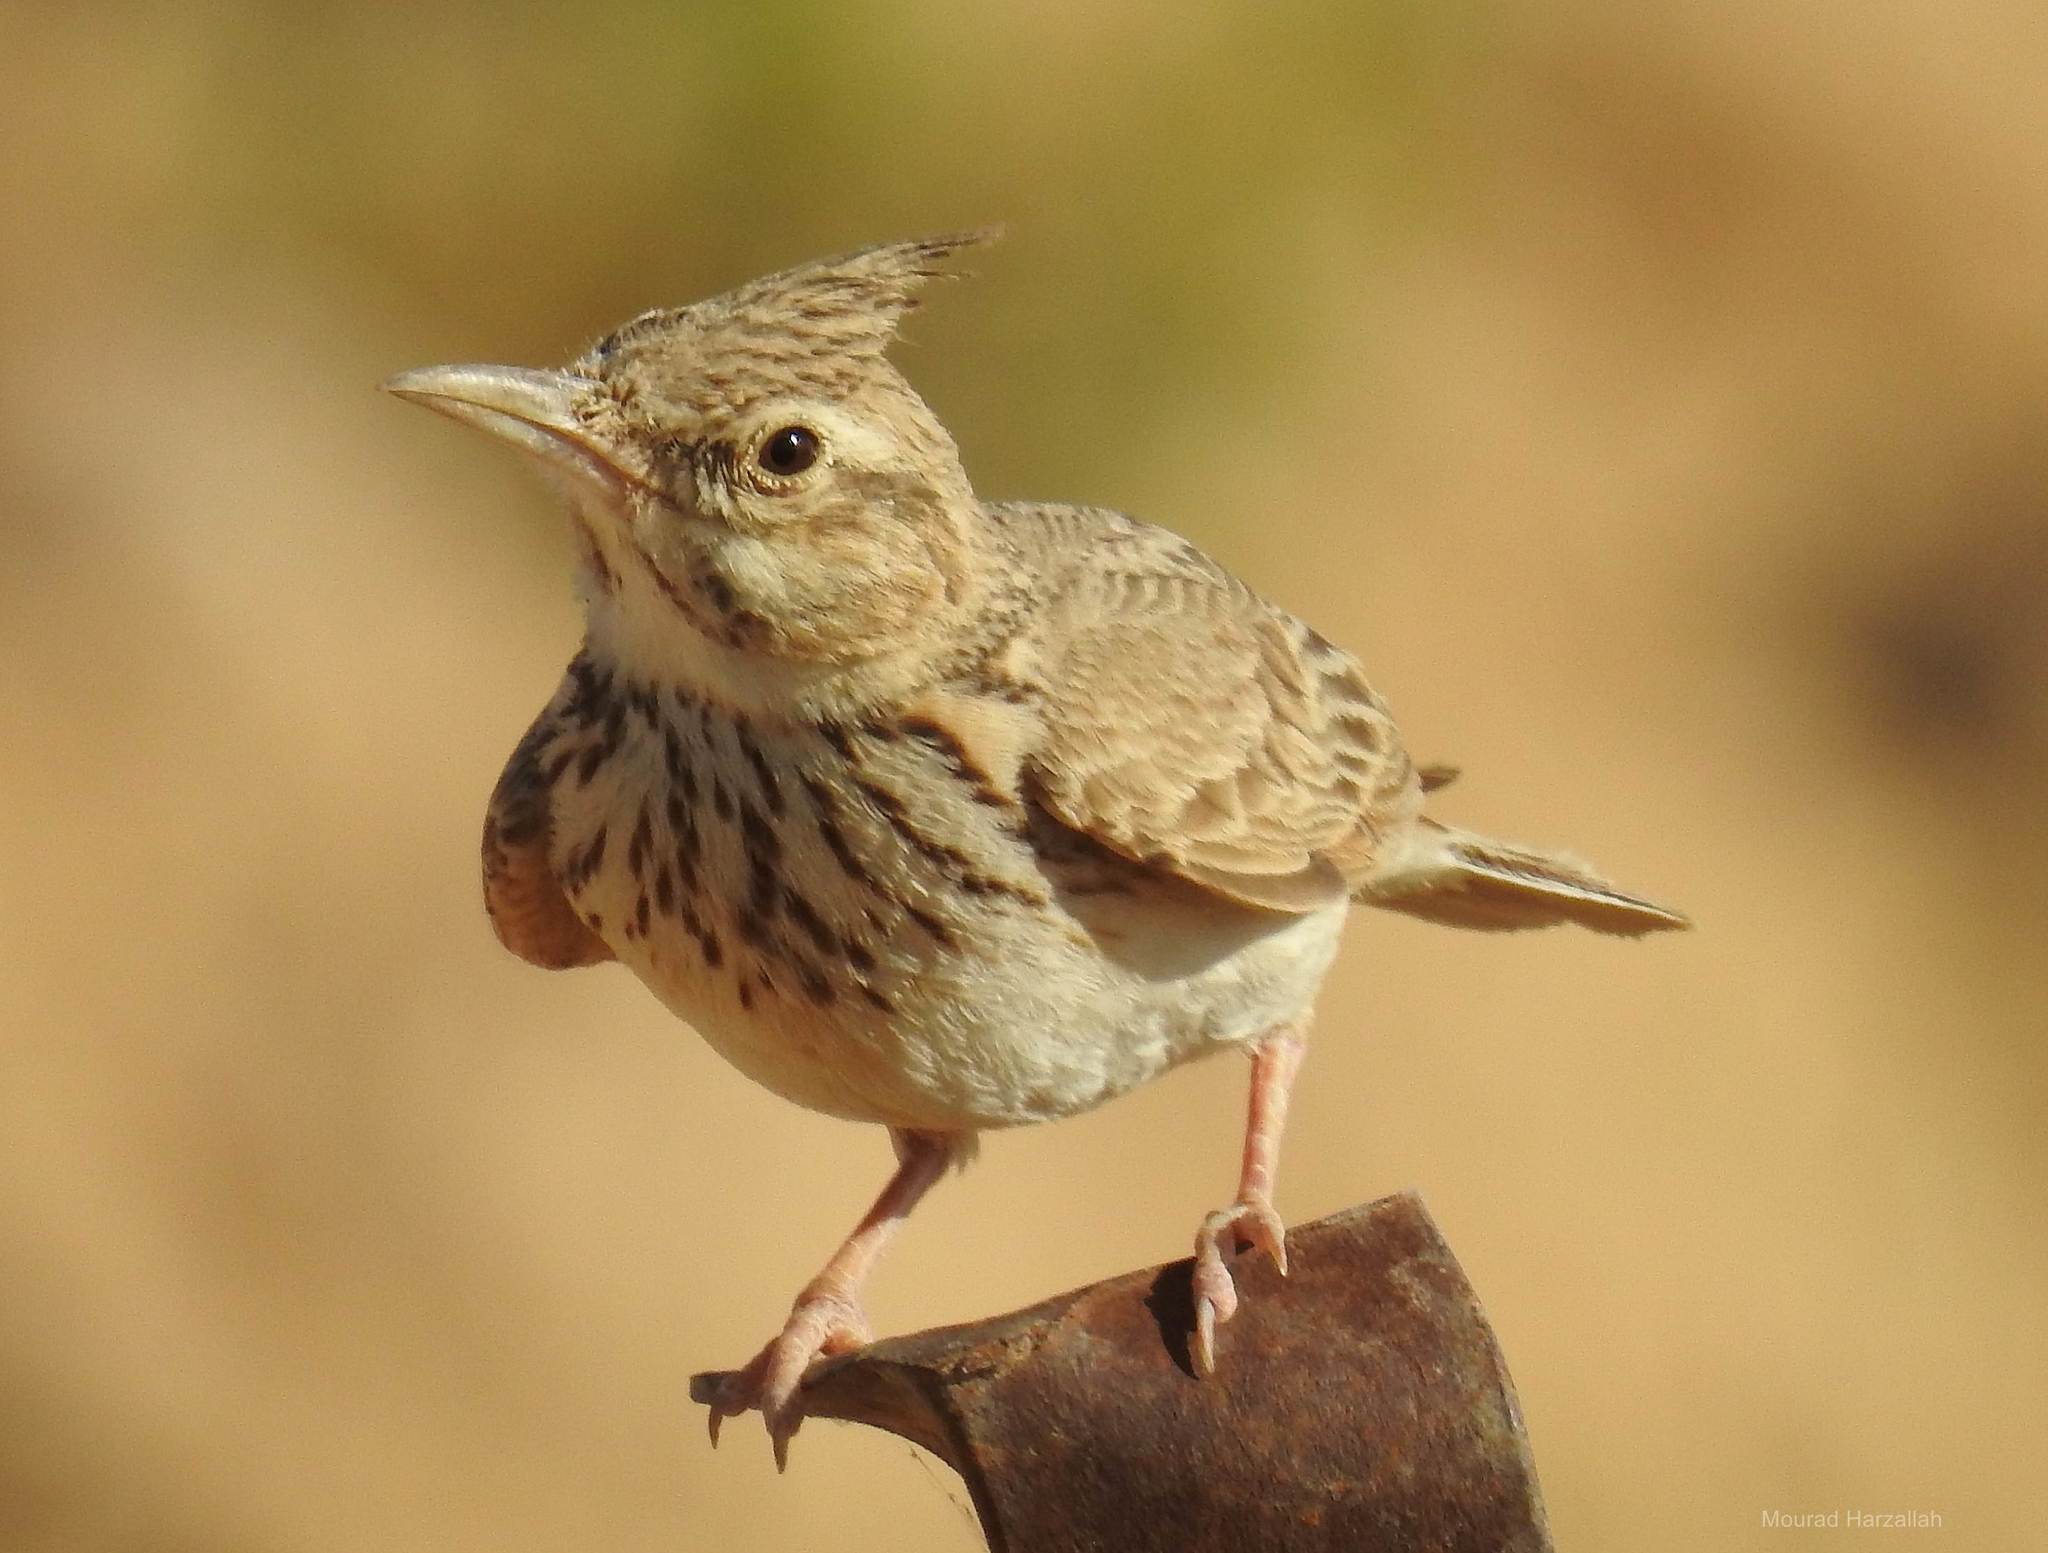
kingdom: Animalia
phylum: Chordata
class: Aves
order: Passeriformes
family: Alaudidae
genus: Galerida
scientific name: Galerida cristata
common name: Crested lark
